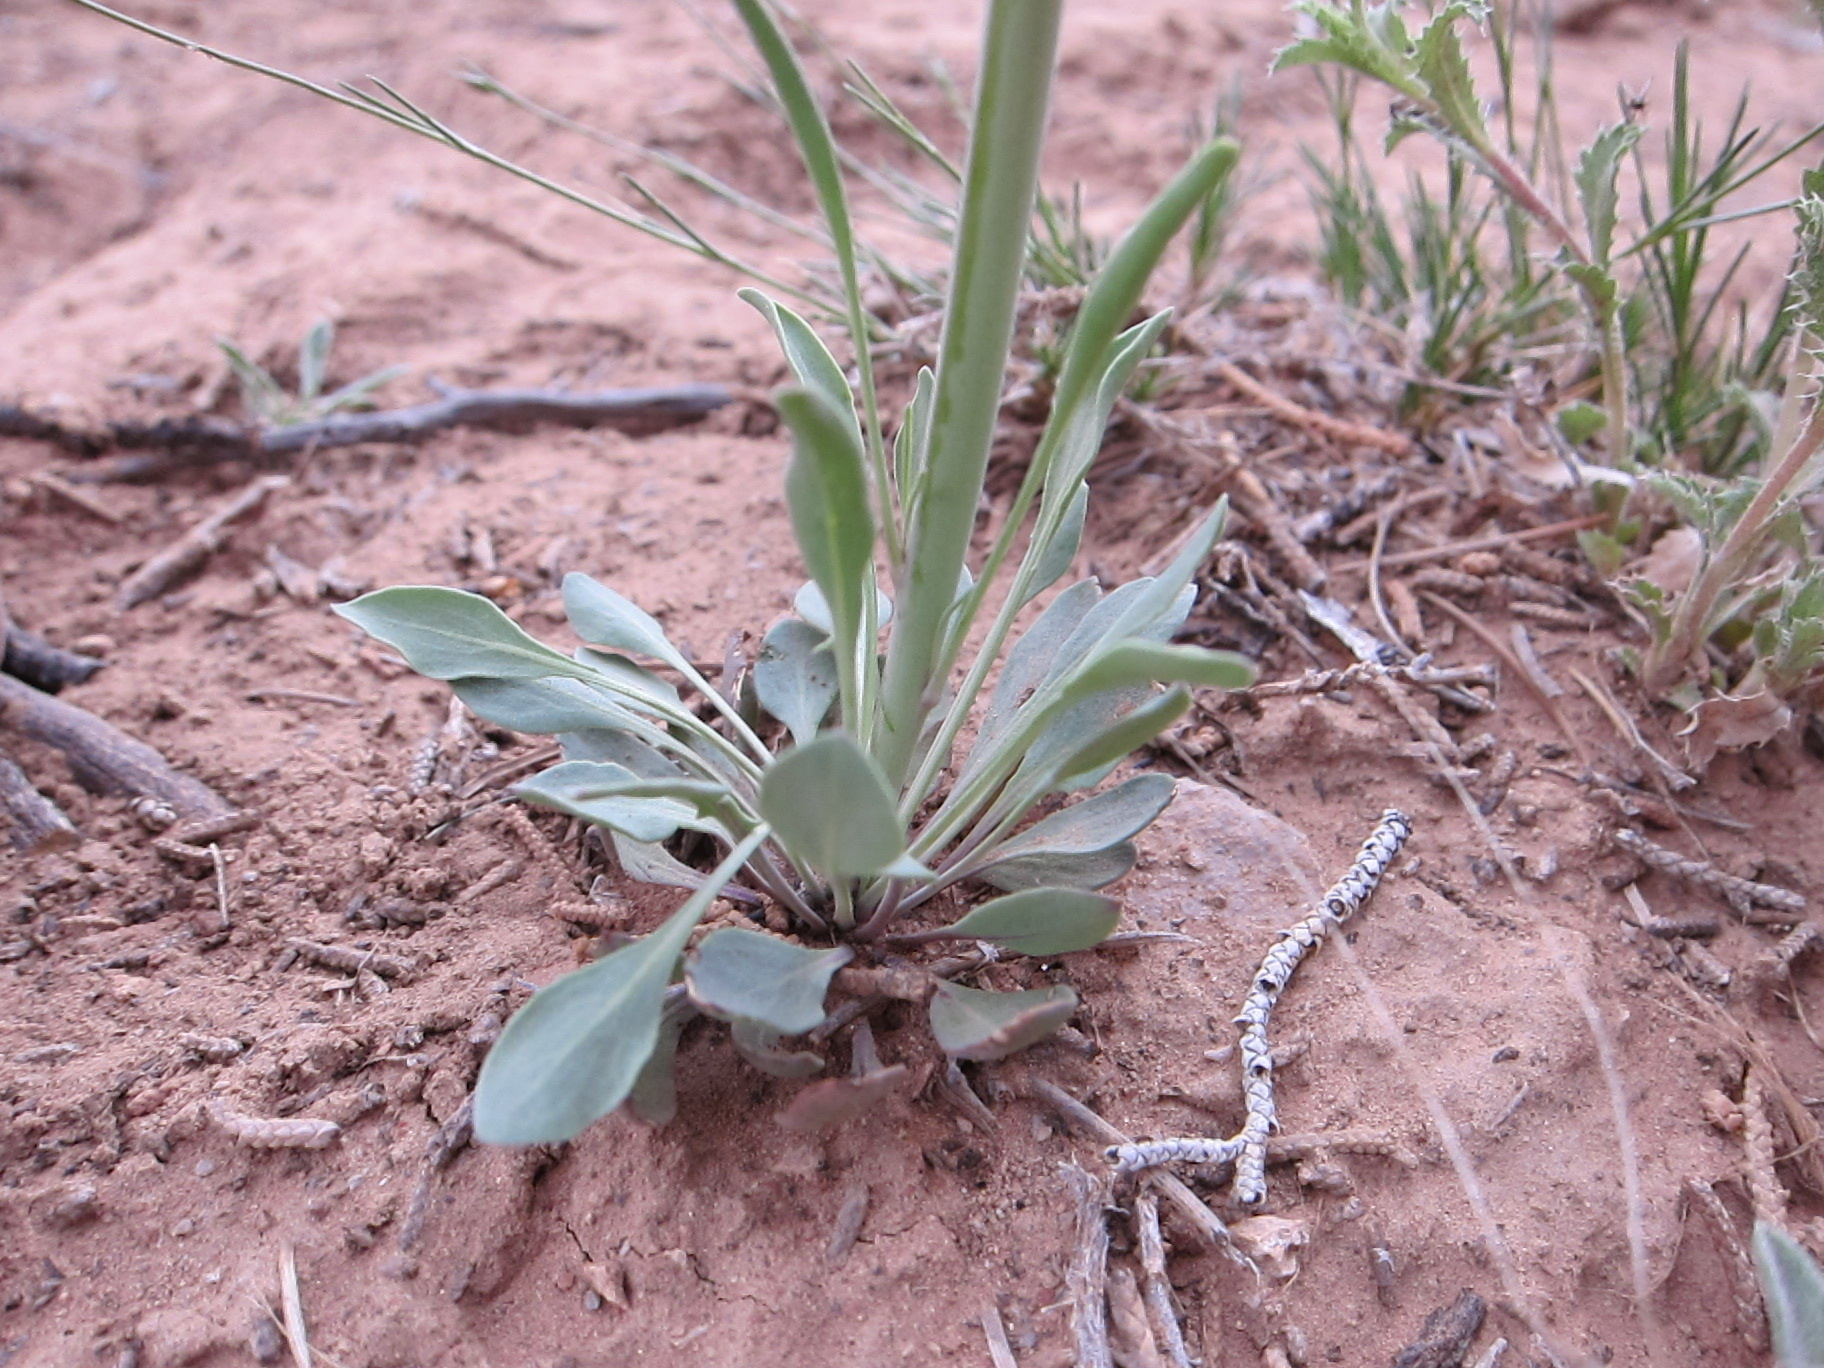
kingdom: Plantae
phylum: Tracheophyta
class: Magnoliopsida
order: Brassicales
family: Brassicaceae
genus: Streptanthus
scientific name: Streptanthus crassicaulis
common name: Thick-stem wild cabbage
